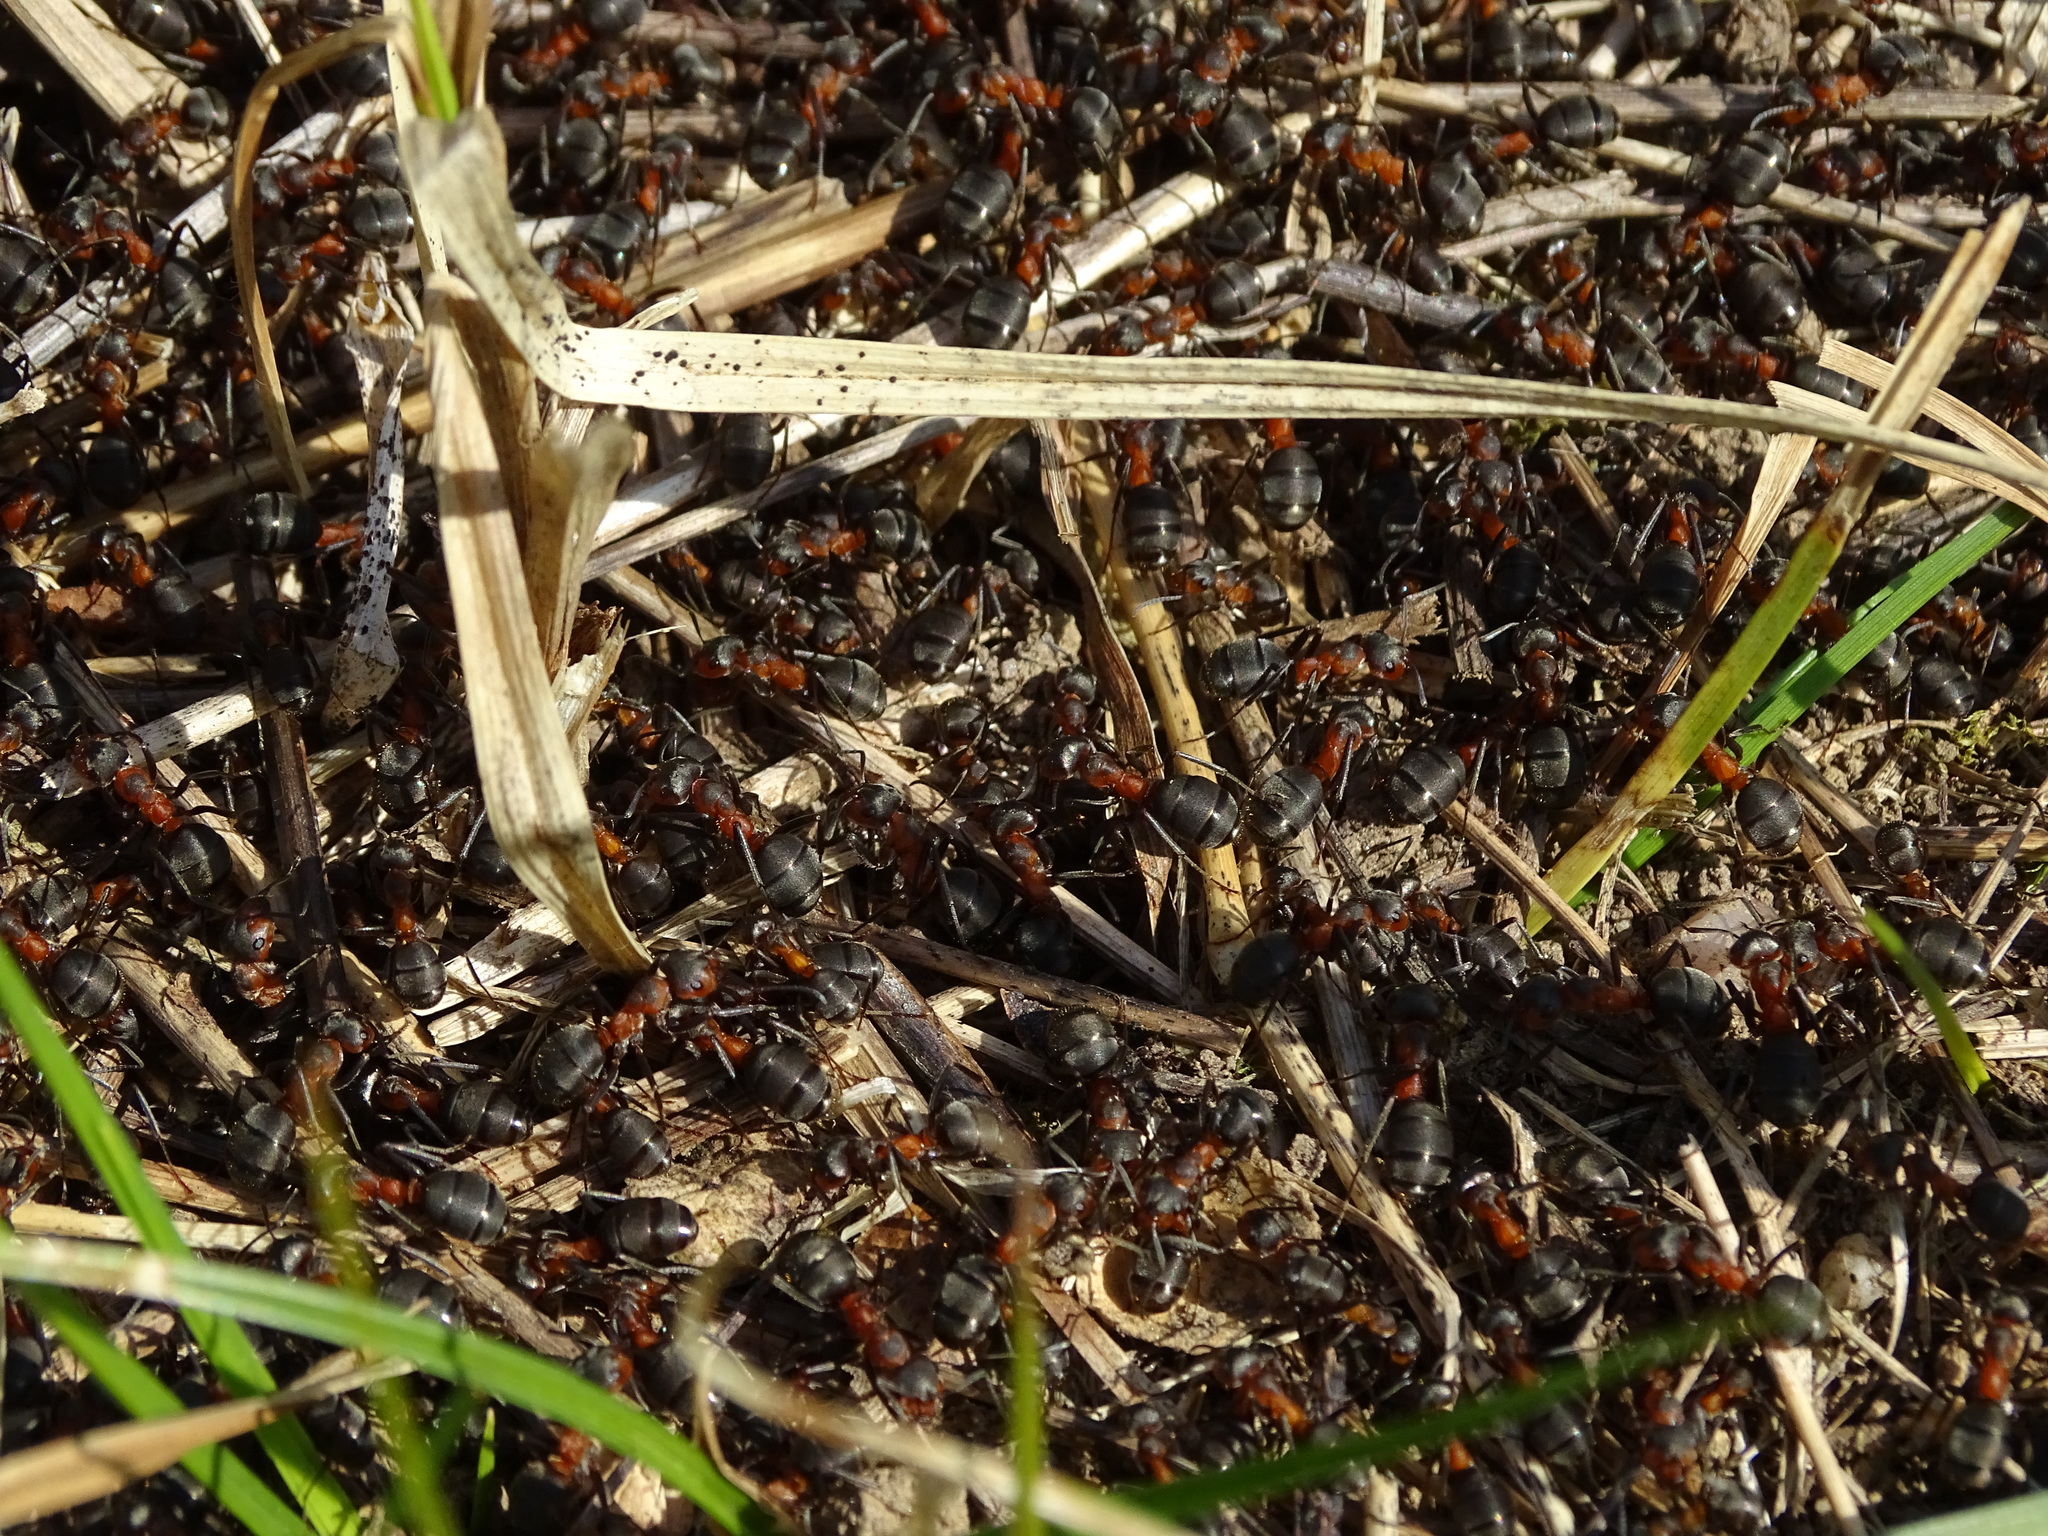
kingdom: Animalia
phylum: Arthropoda
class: Insecta
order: Hymenoptera
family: Formicidae
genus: Formica
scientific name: Formica pratensis
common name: European red wood ant
